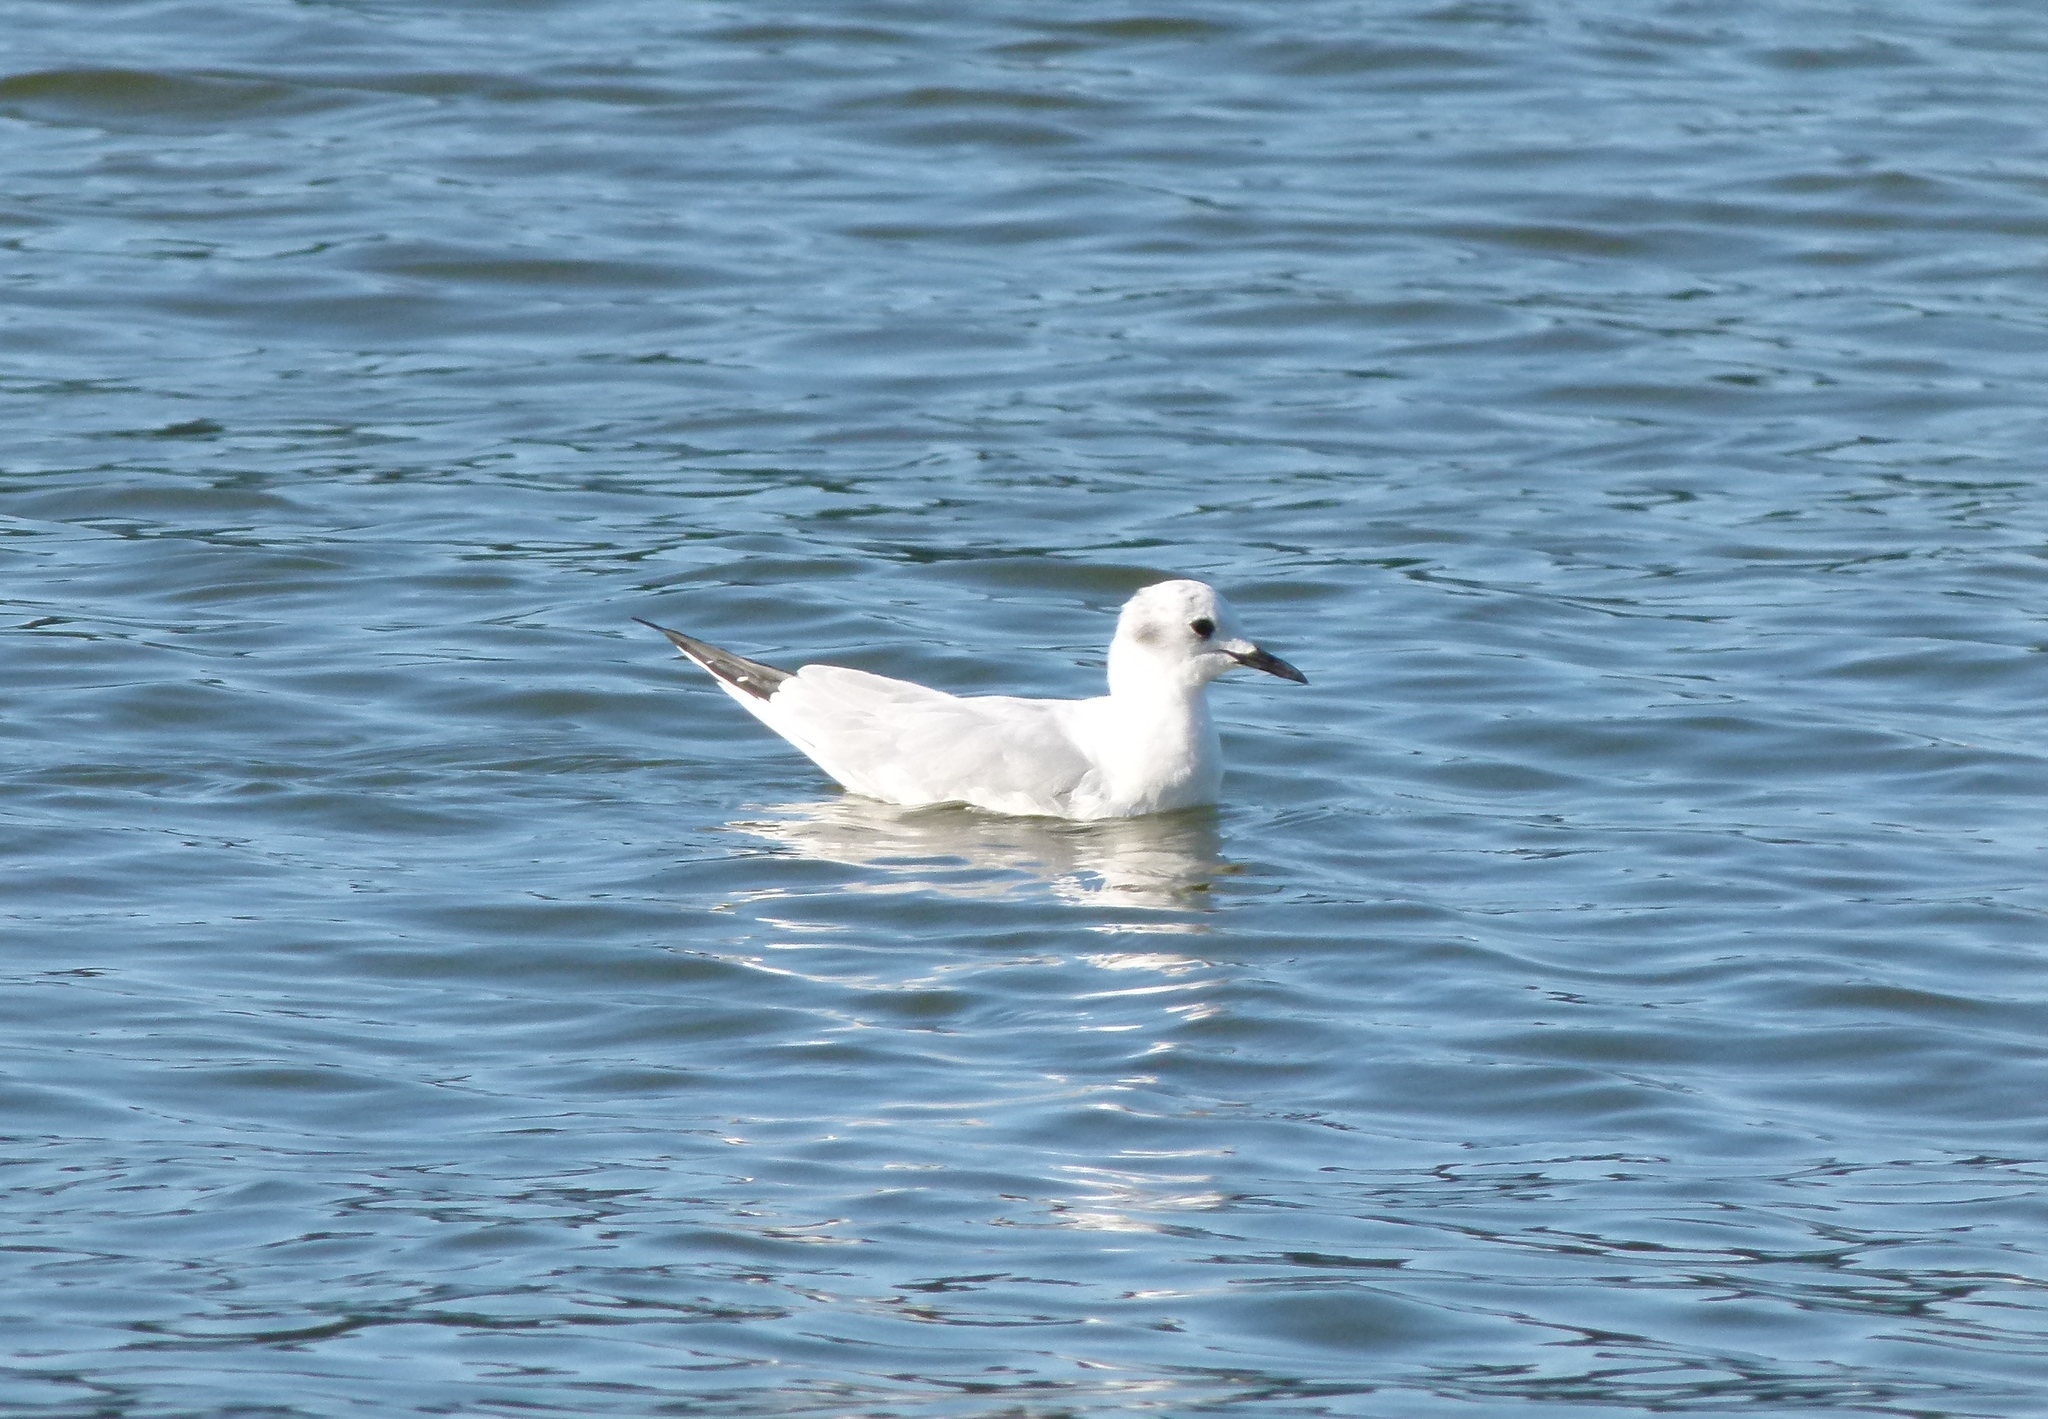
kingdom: Animalia
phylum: Chordata
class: Aves
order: Charadriiformes
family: Laridae
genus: Chroicocephalus
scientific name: Chroicocephalus philadelphia
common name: Bonaparte's gull
